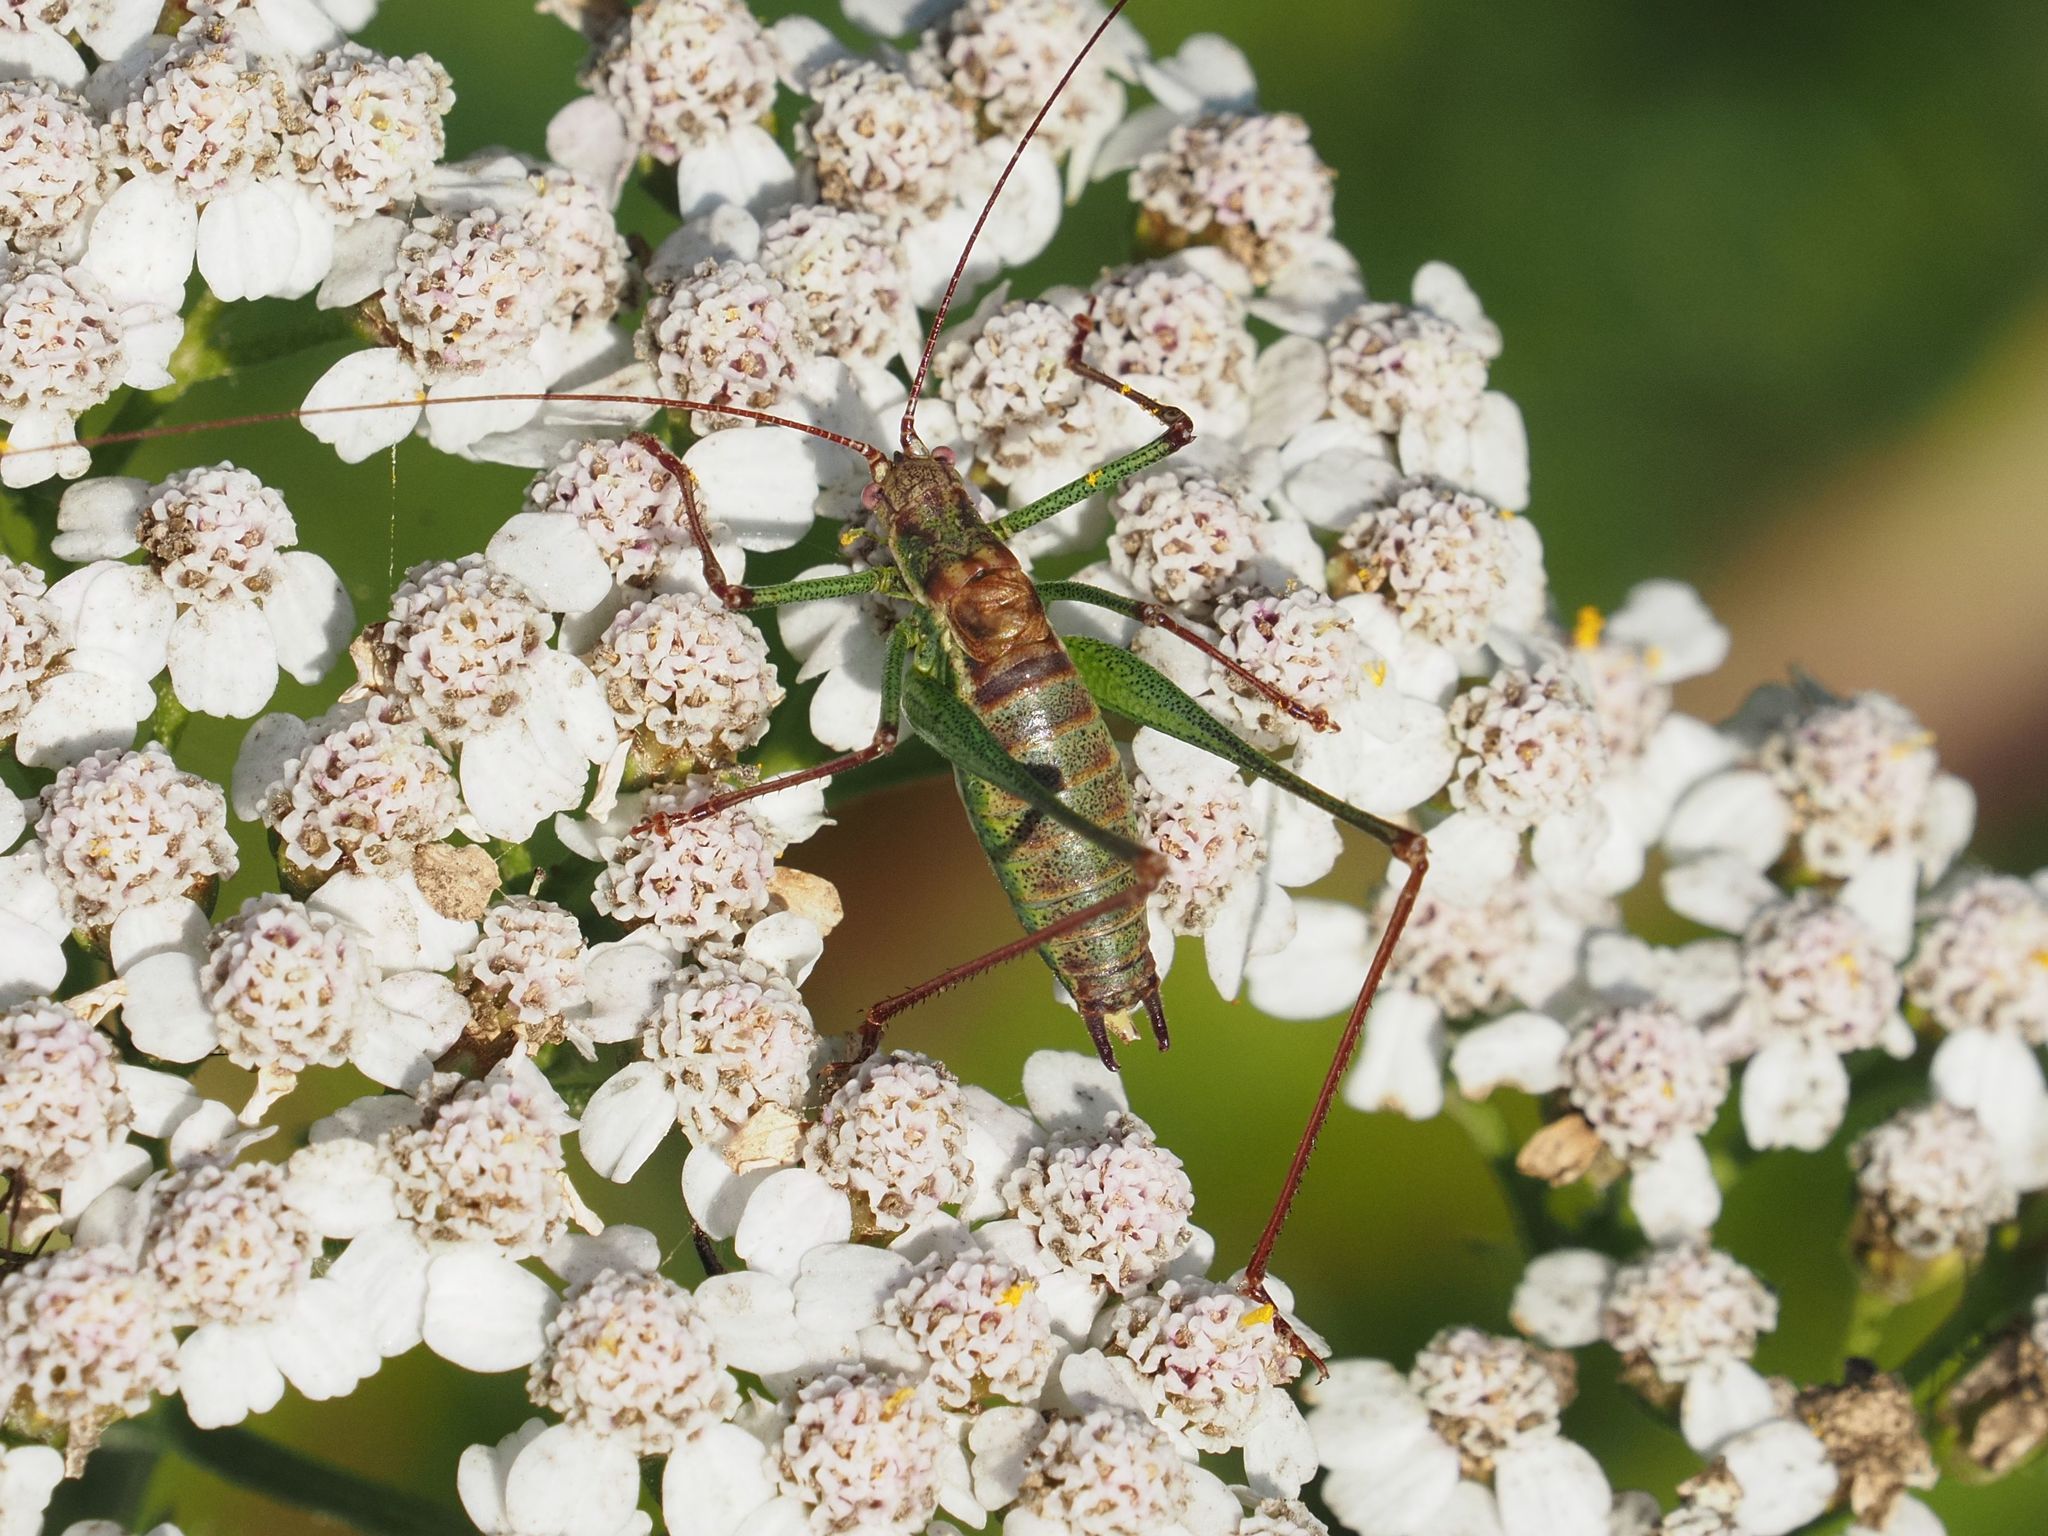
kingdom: Animalia
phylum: Arthropoda
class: Insecta
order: Orthoptera
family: Tettigoniidae
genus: Leptophyes
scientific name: Leptophyes albovittata
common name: Striped bush-cricket
